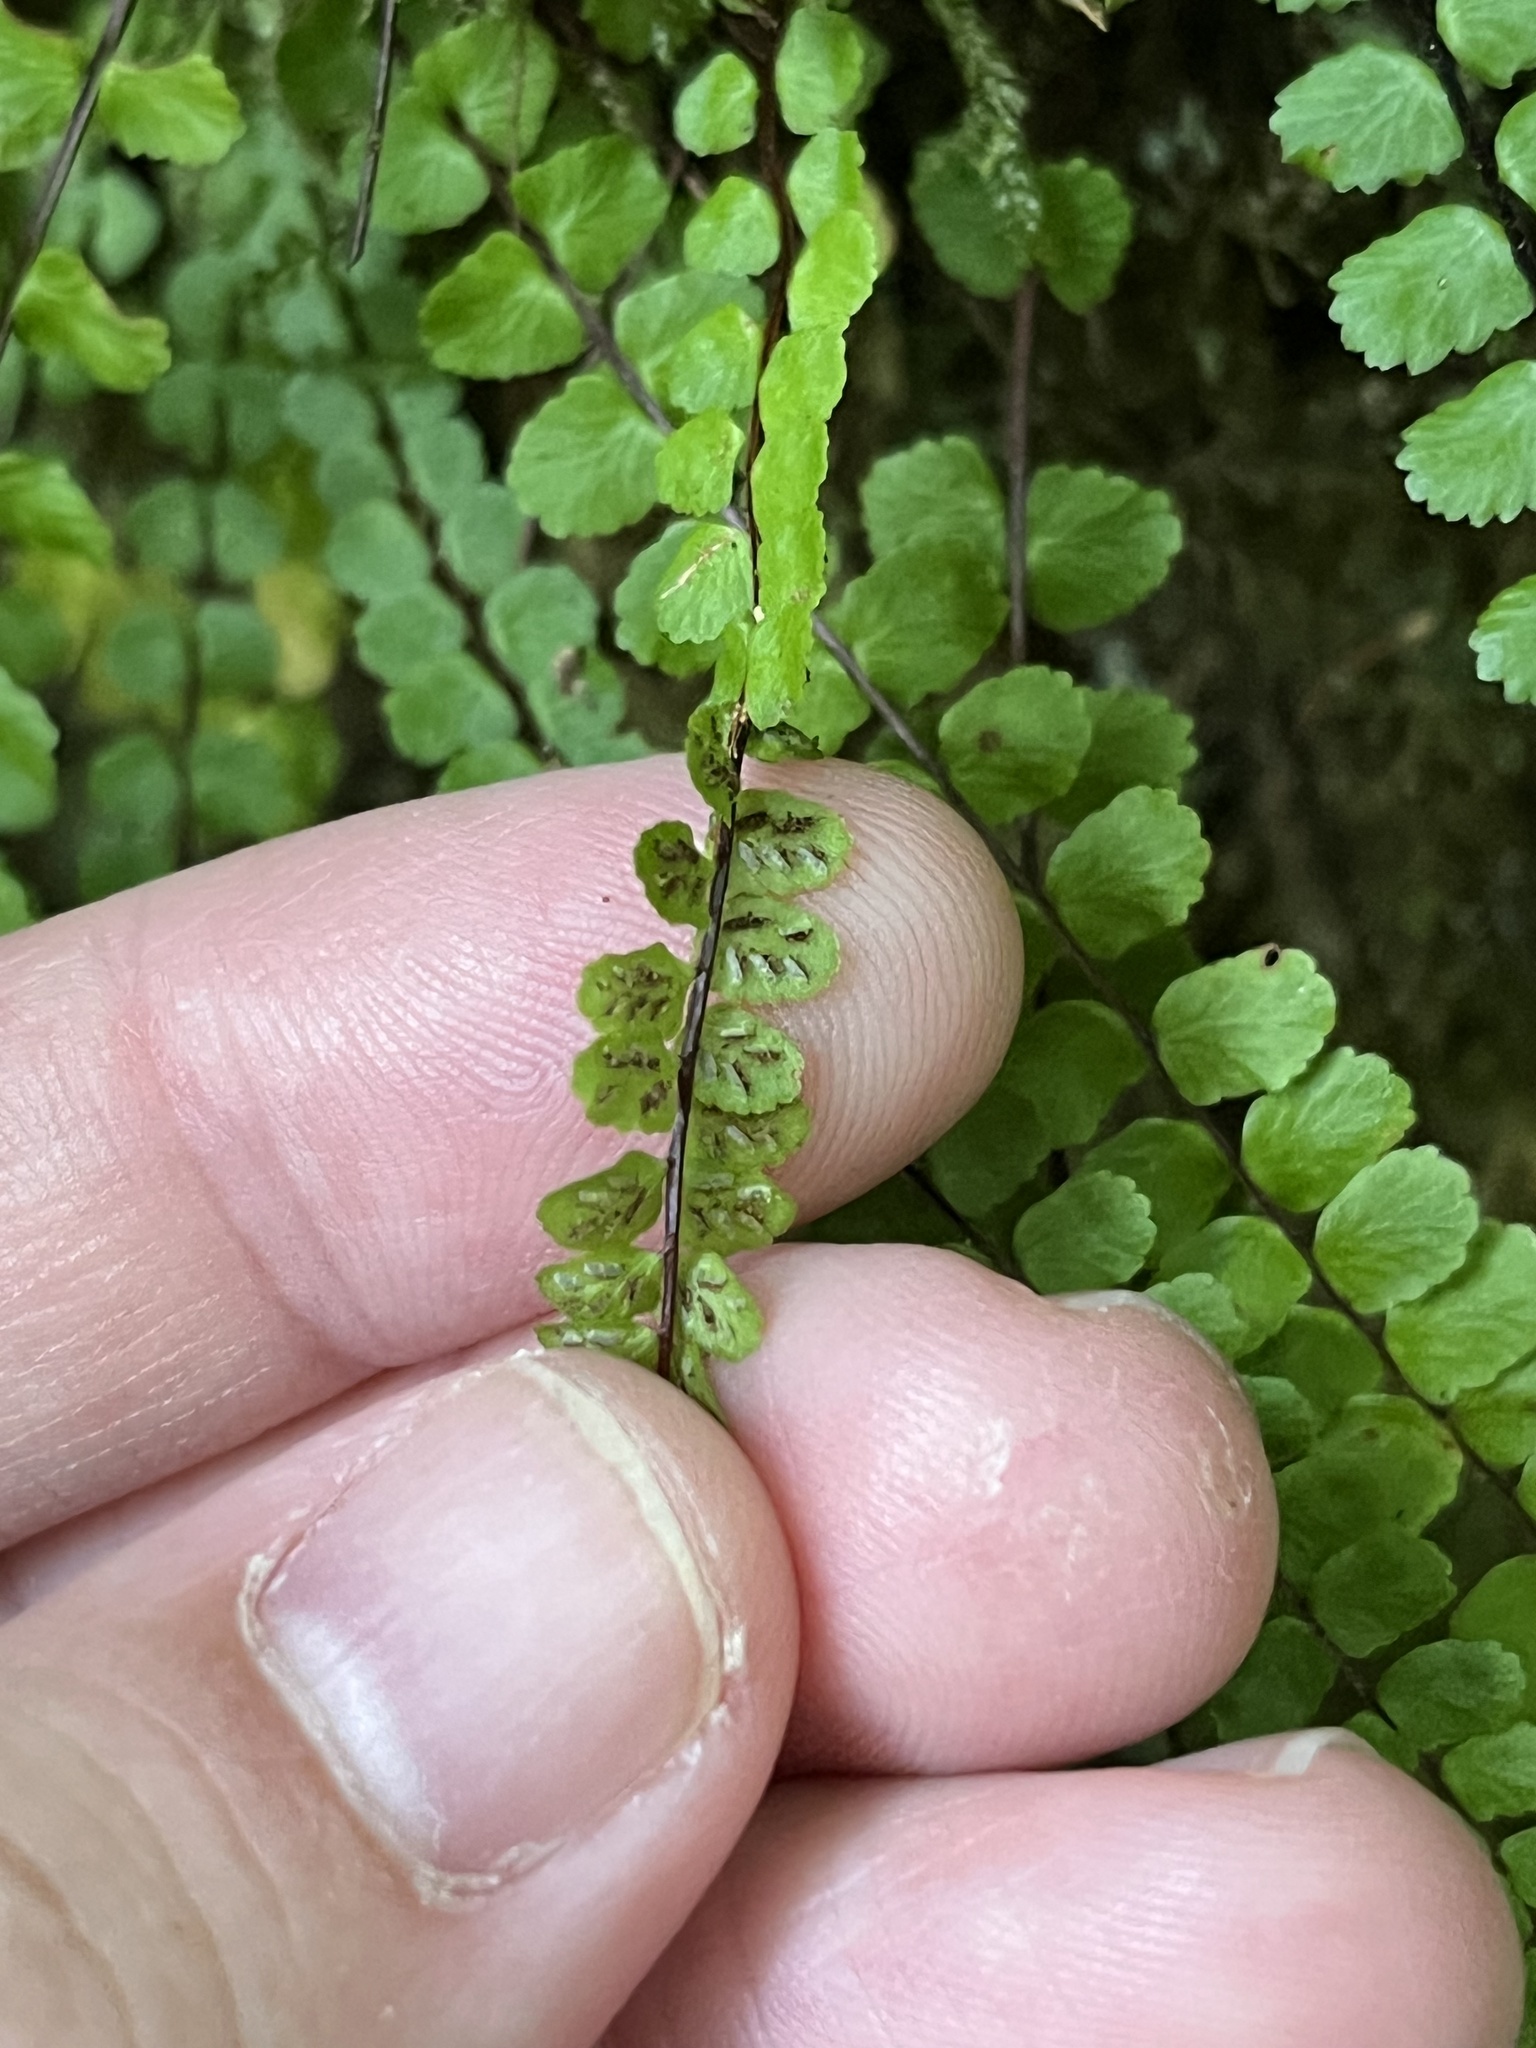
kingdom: Plantae
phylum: Tracheophyta
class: Polypodiopsida
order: Polypodiales
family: Aspleniaceae
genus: Asplenium
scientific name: Asplenium trichomanes
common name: Maidenhair spleenwort
